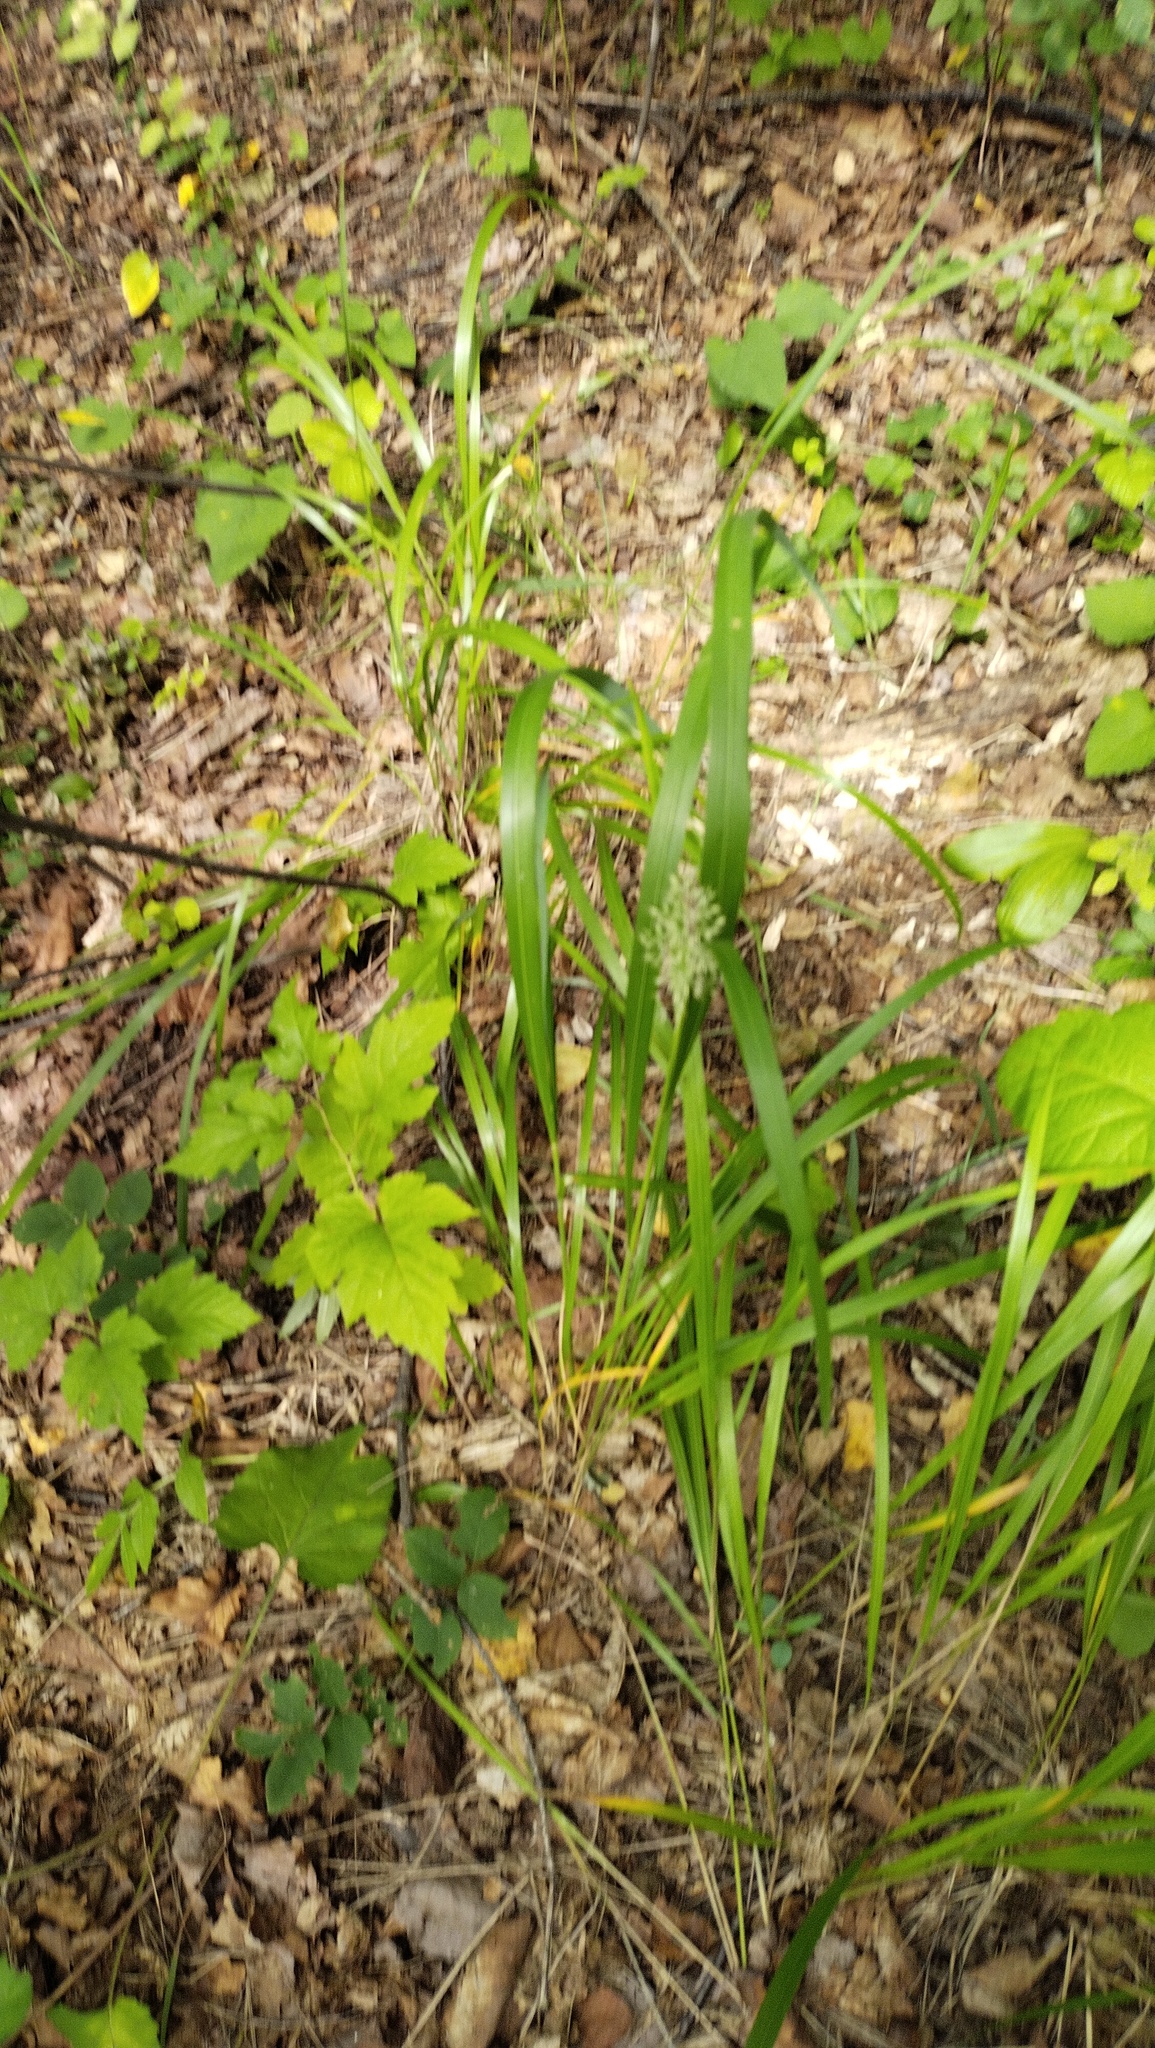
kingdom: Plantae
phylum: Tracheophyta
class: Liliopsida
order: Poales
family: Poaceae
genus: Calamagrostis
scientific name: Calamagrostis arundinacea
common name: Metskastik
